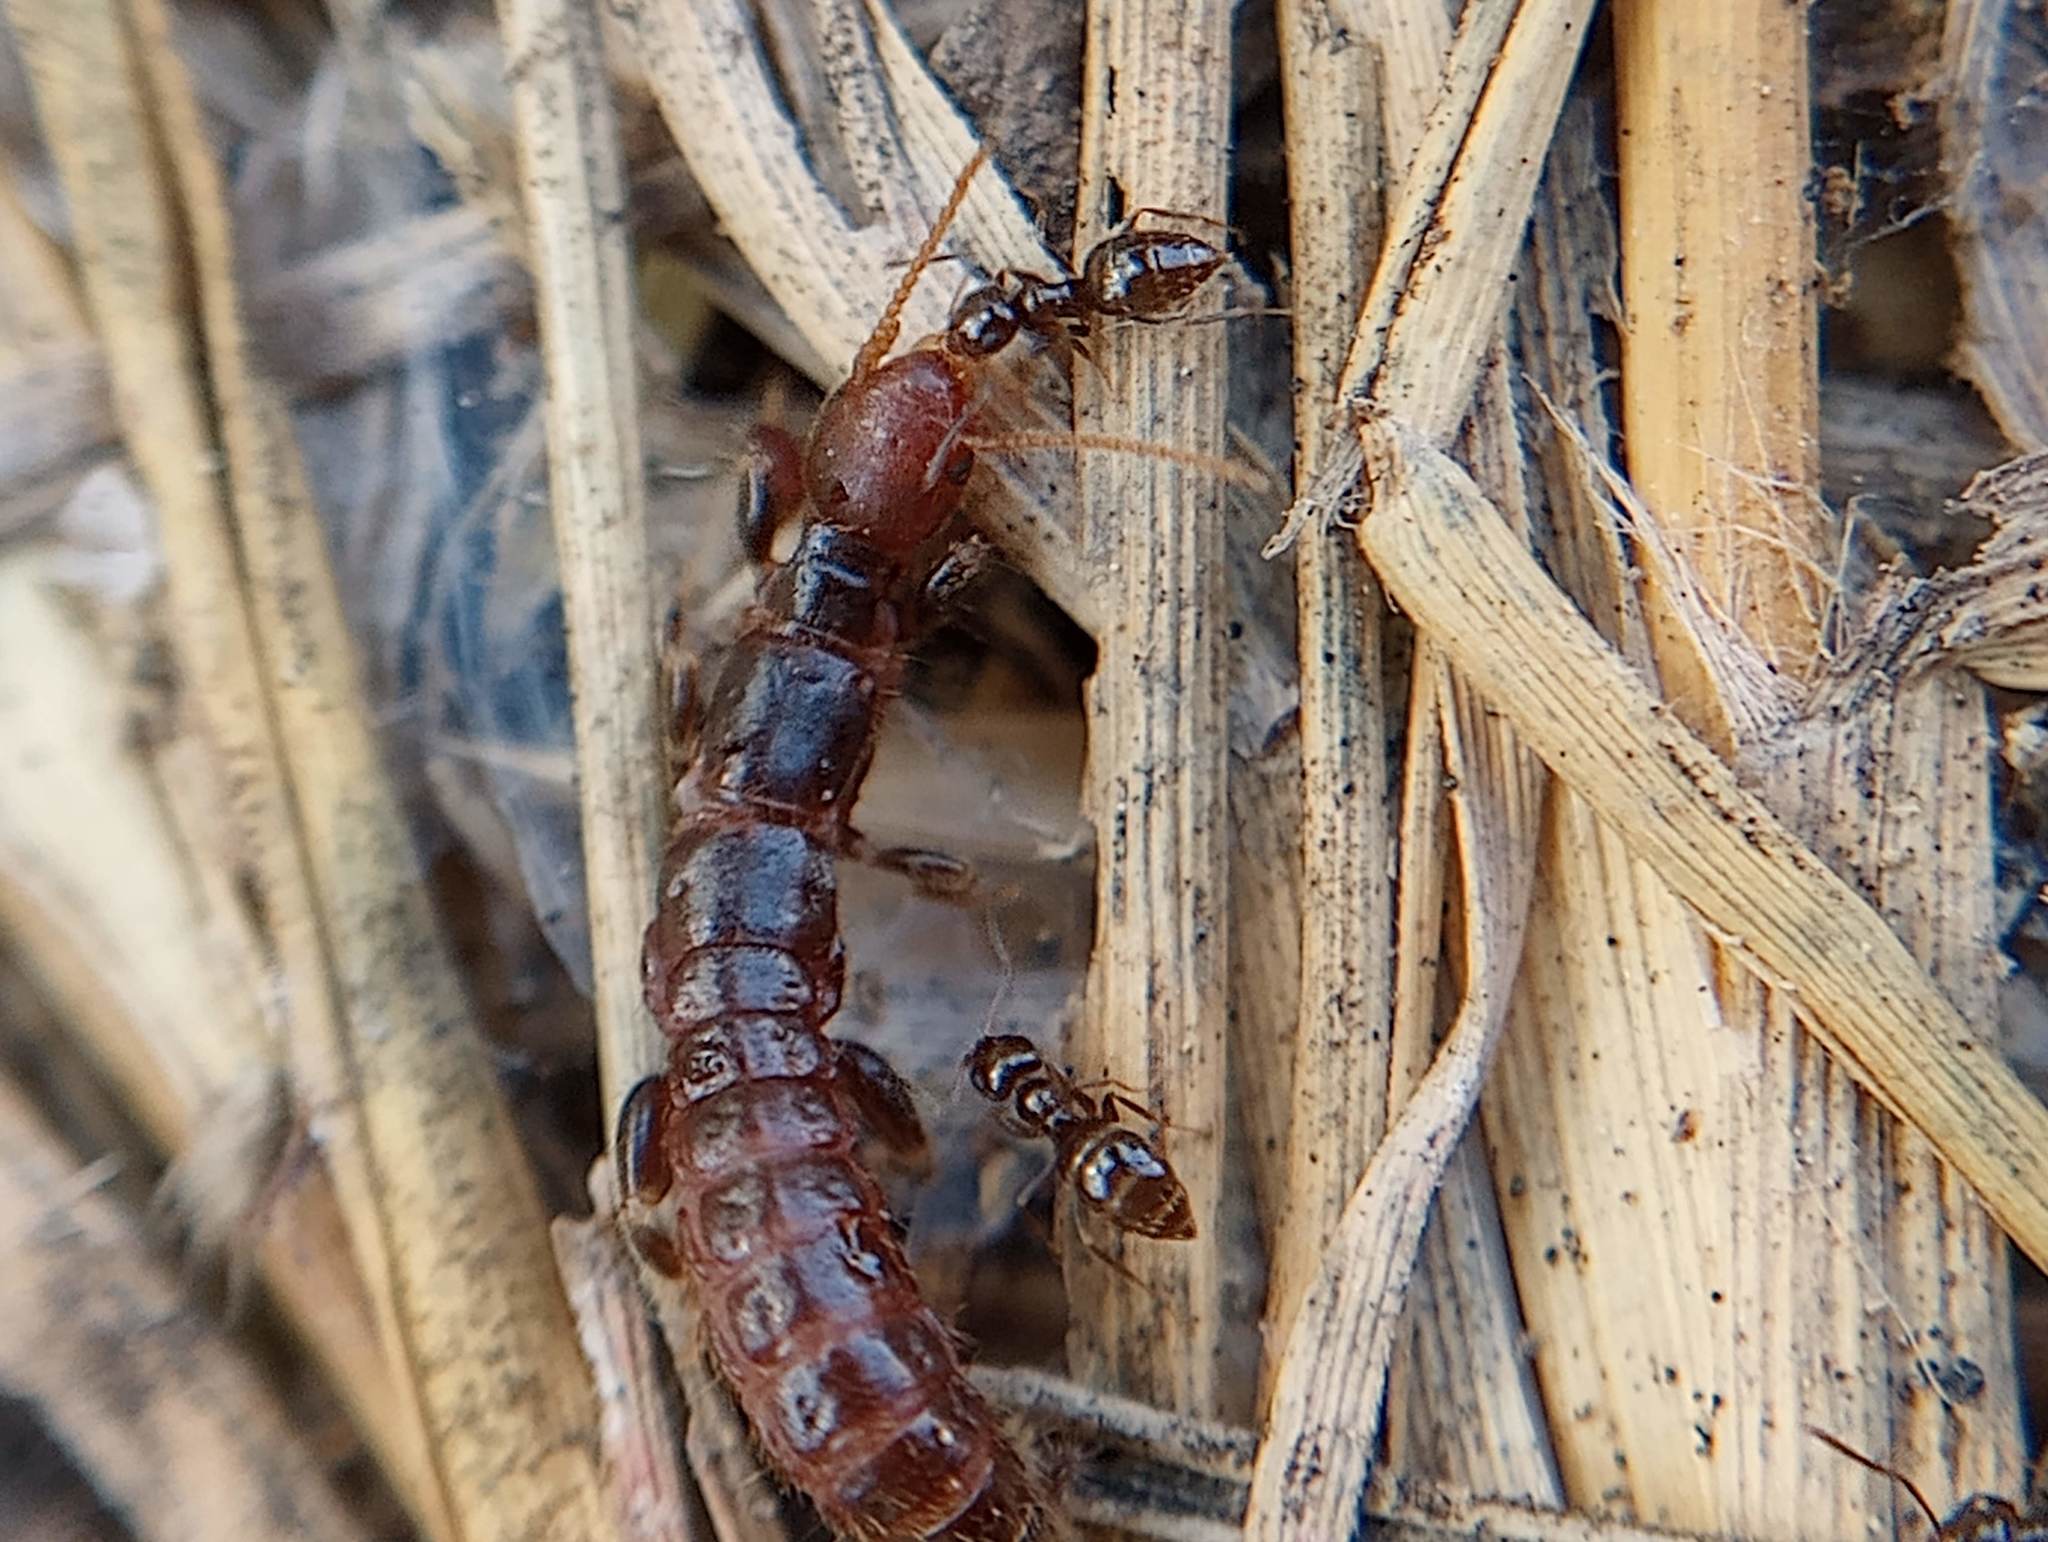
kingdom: Animalia
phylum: Arthropoda
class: Insecta
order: Hymenoptera
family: Formicidae
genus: Brachymyrmex
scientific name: Brachymyrmex patagonicus
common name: Dark rover ant
